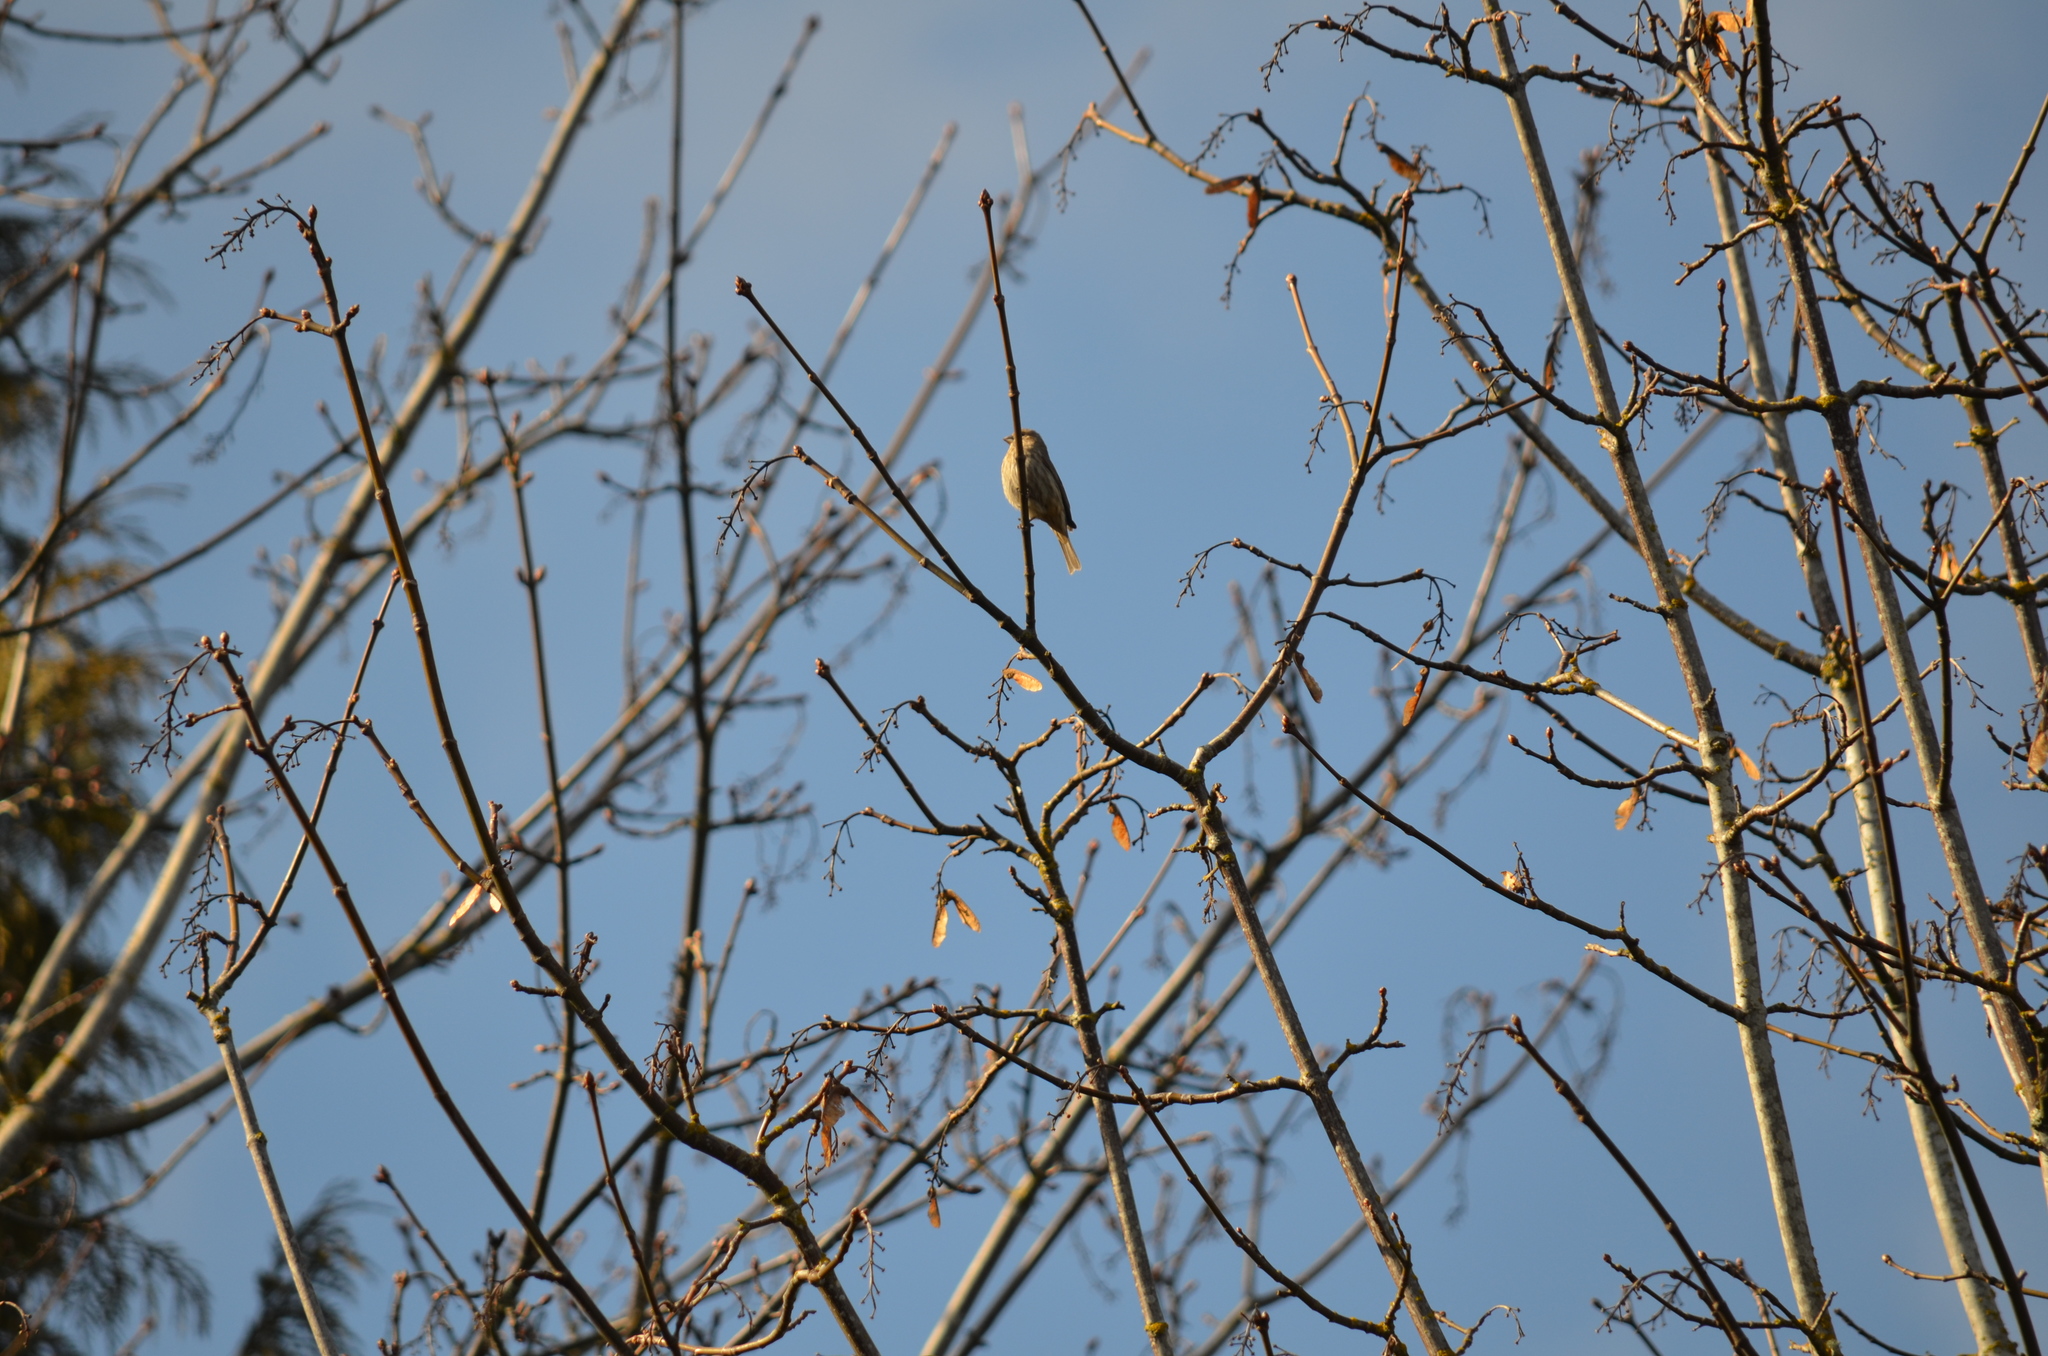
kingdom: Animalia
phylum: Chordata
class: Aves
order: Passeriformes
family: Fringillidae
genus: Haemorhous
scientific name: Haemorhous mexicanus
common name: House finch
